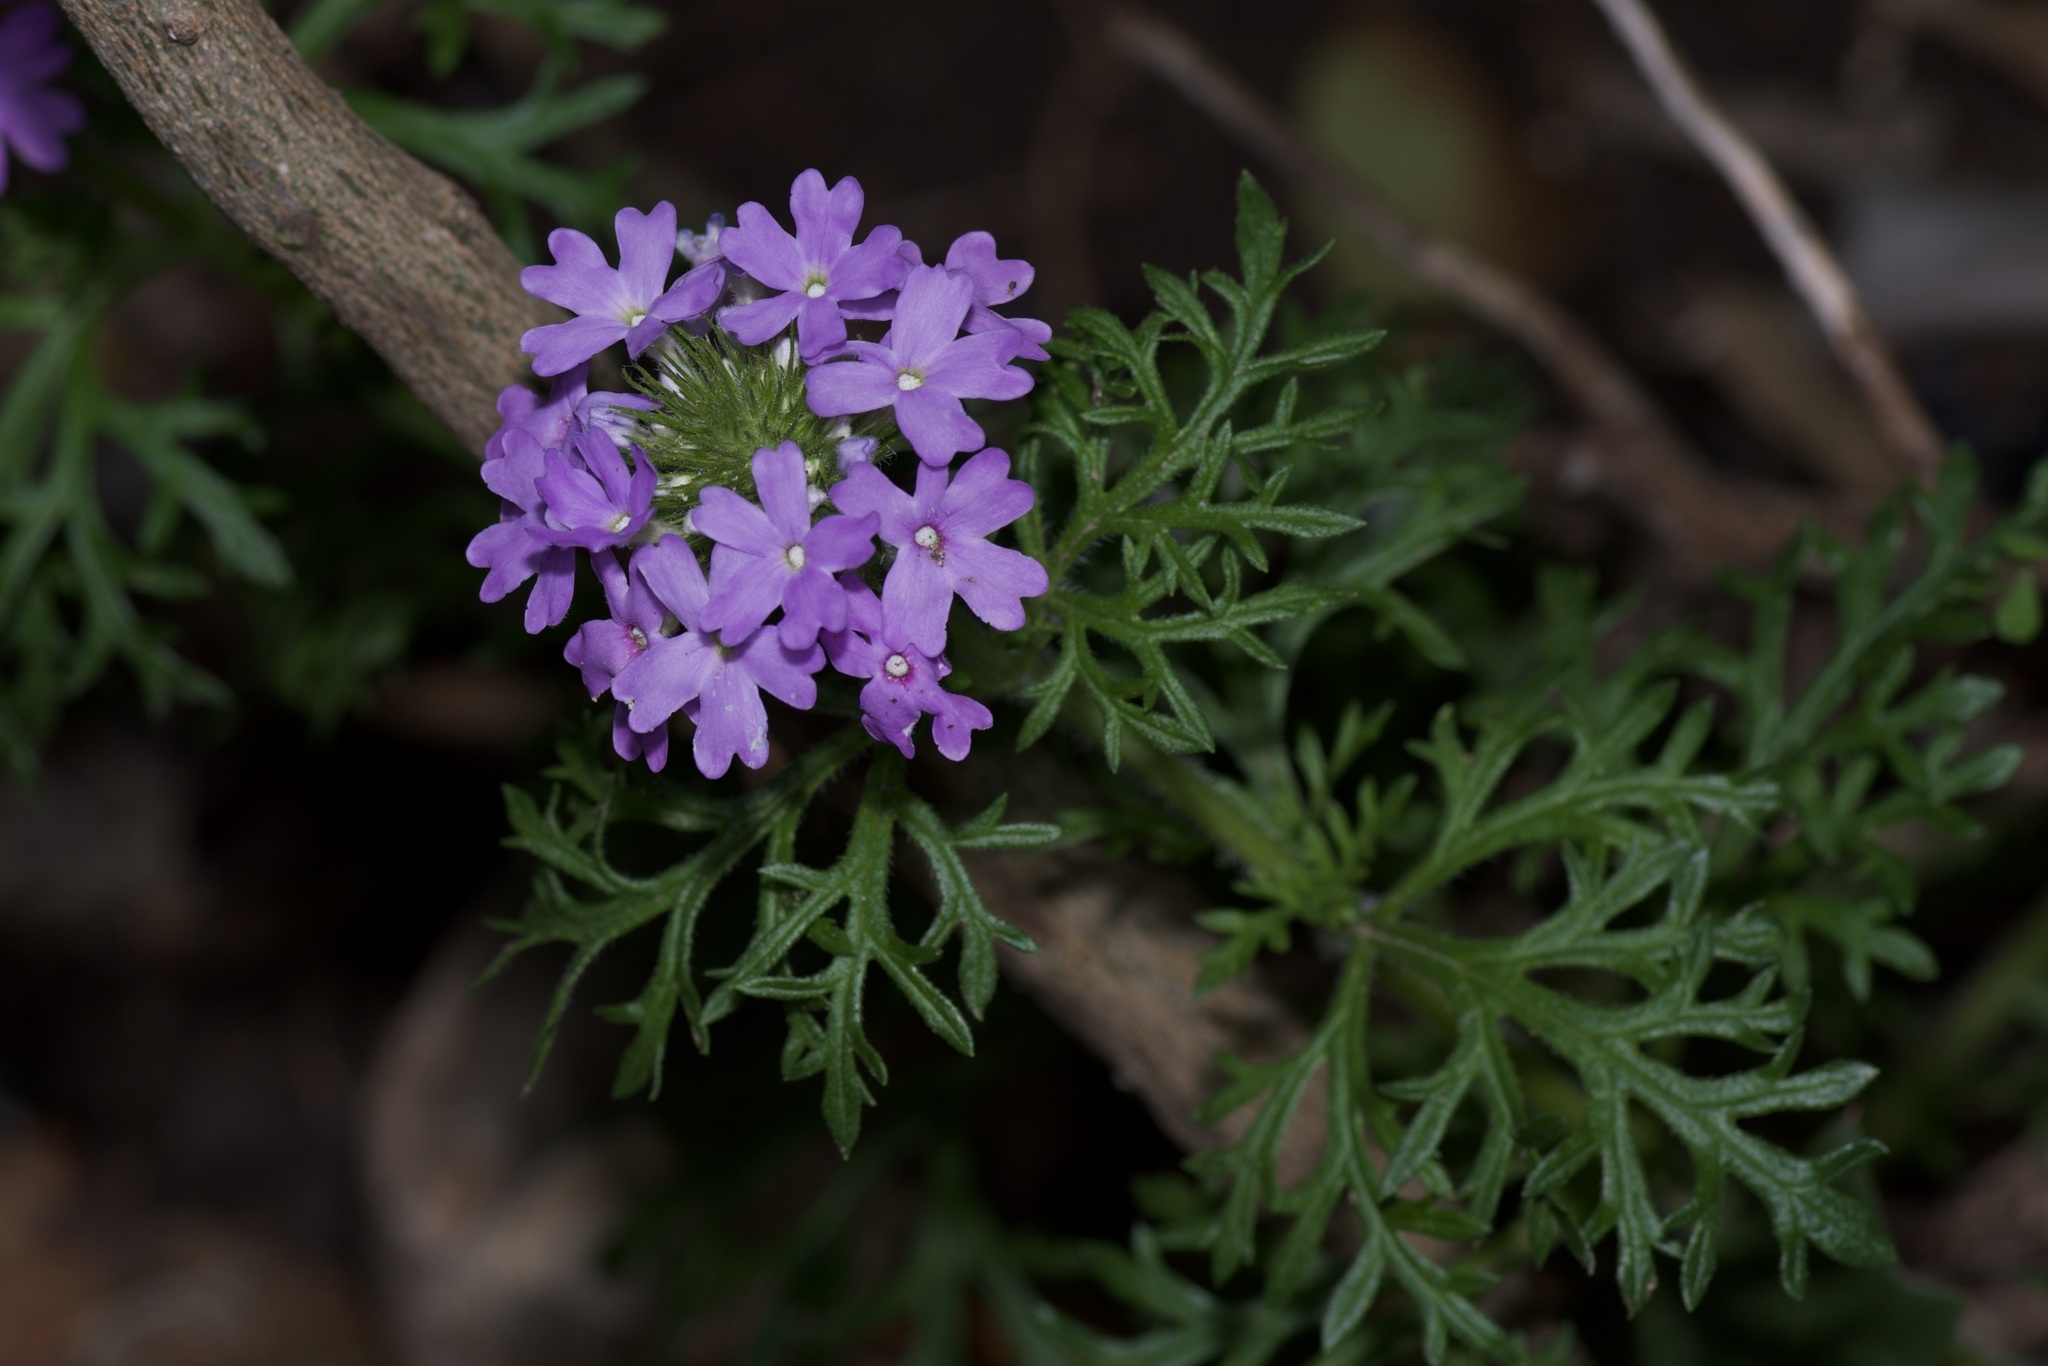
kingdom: Plantae
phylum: Tracheophyta
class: Magnoliopsida
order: Lamiales
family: Verbenaceae
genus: Verbena
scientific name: Verbena bipinnatifida
